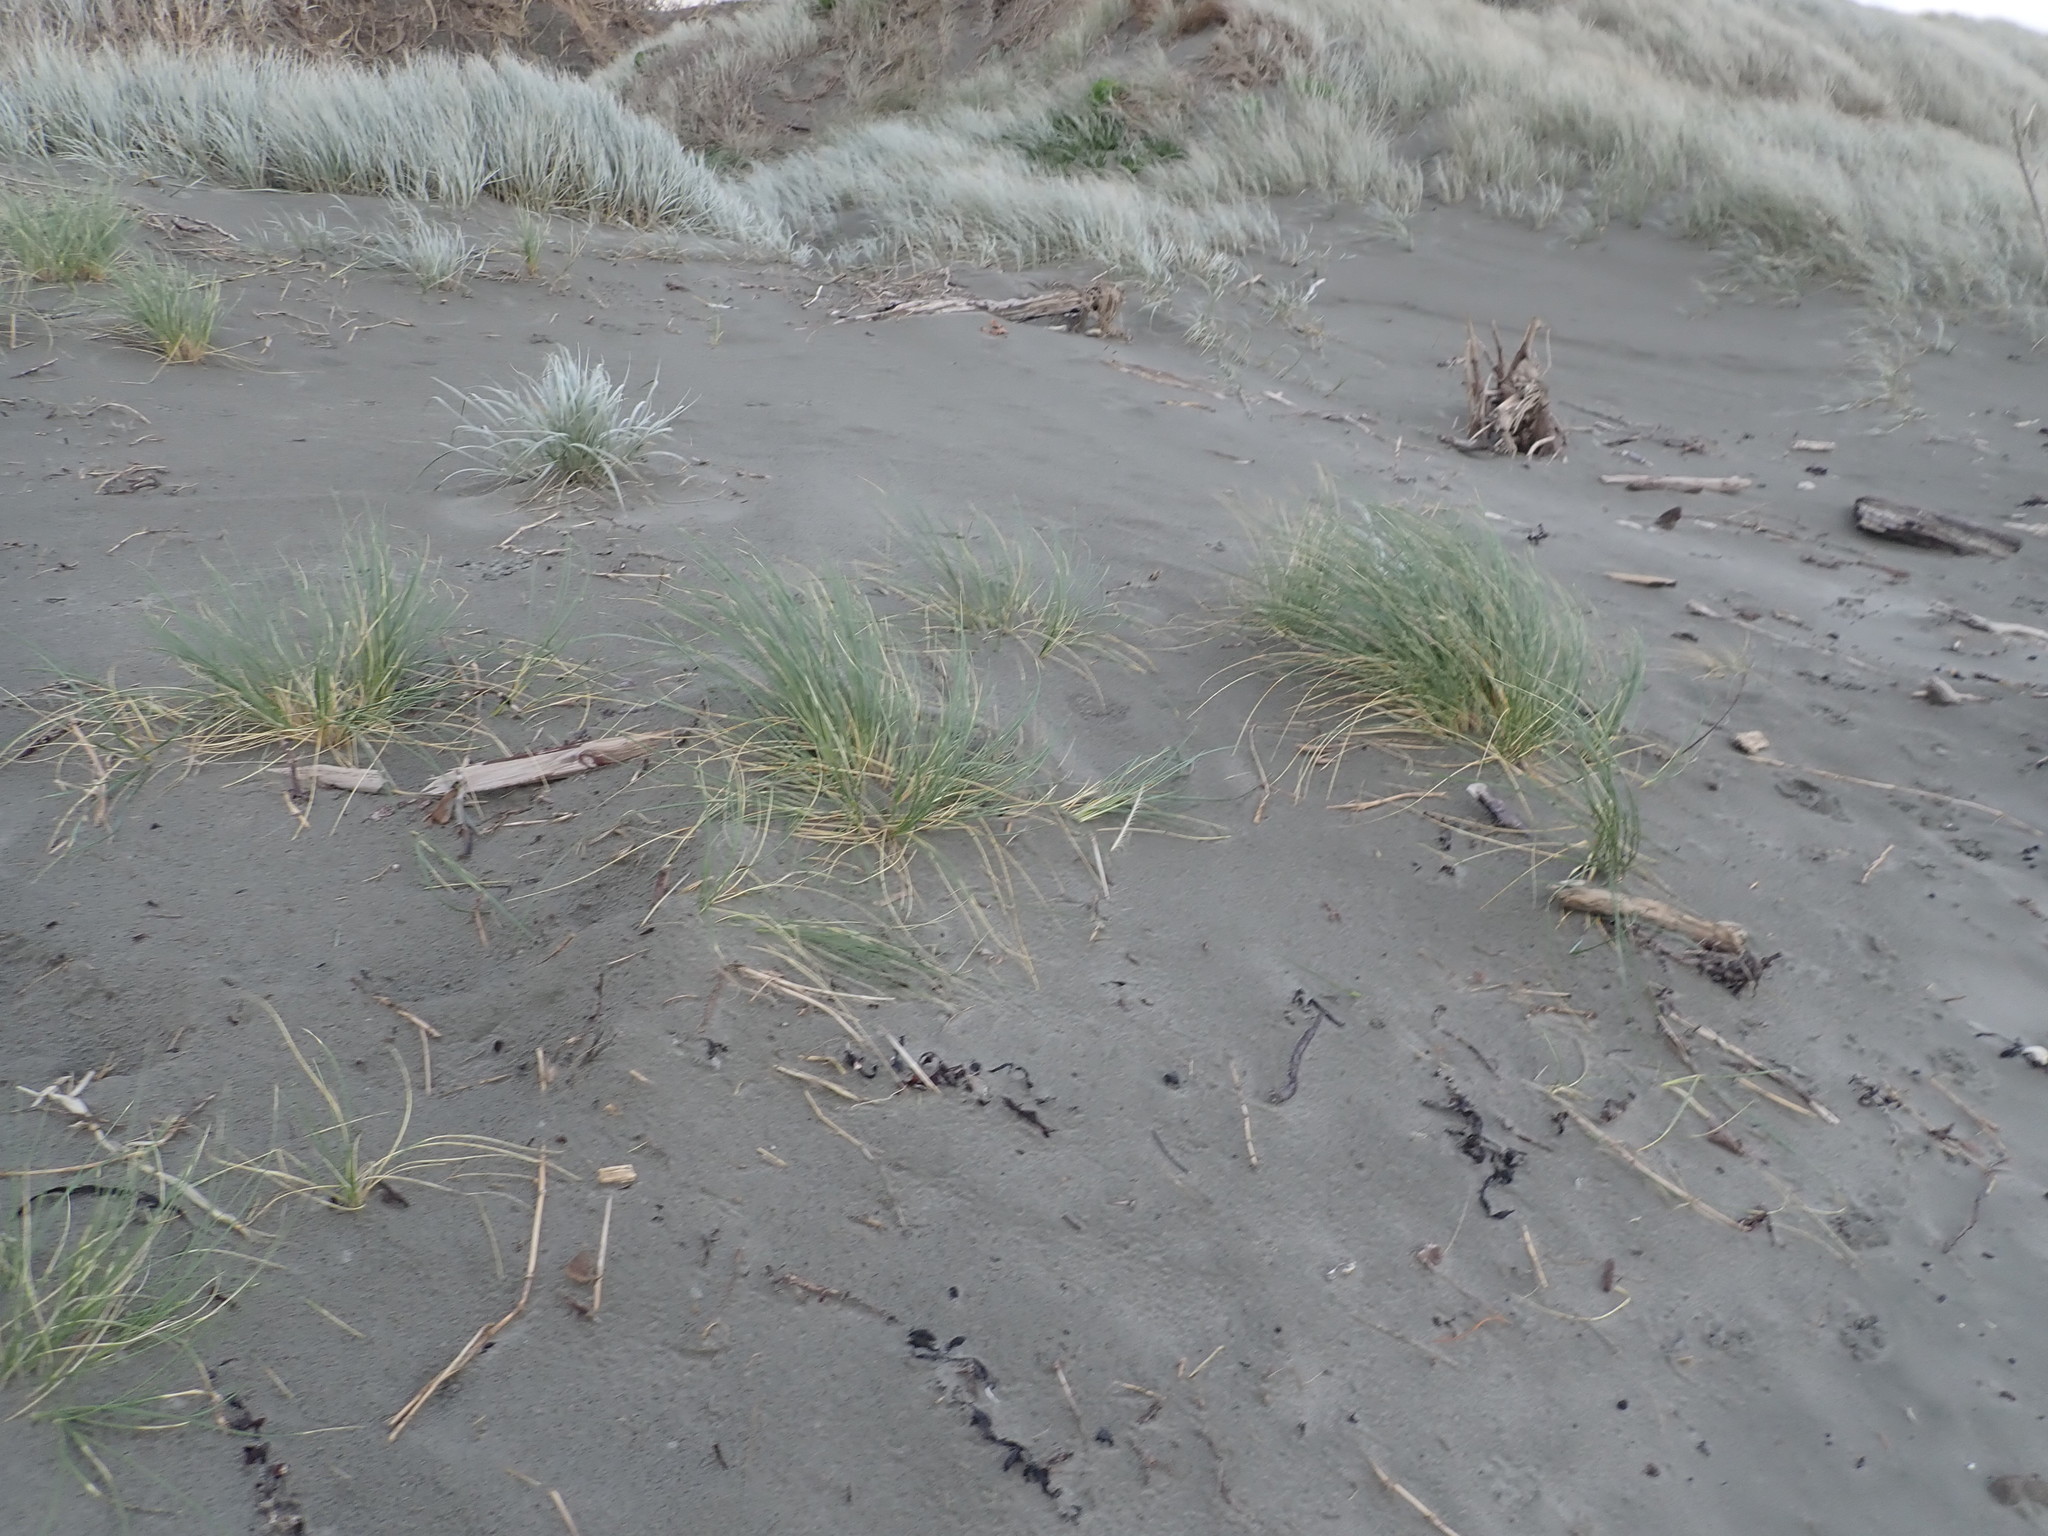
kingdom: Plantae
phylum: Tracheophyta
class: Liliopsida
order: Poales
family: Poaceae
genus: Calamagrostis
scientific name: Calamagrostis arenaria
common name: European beachgrass
